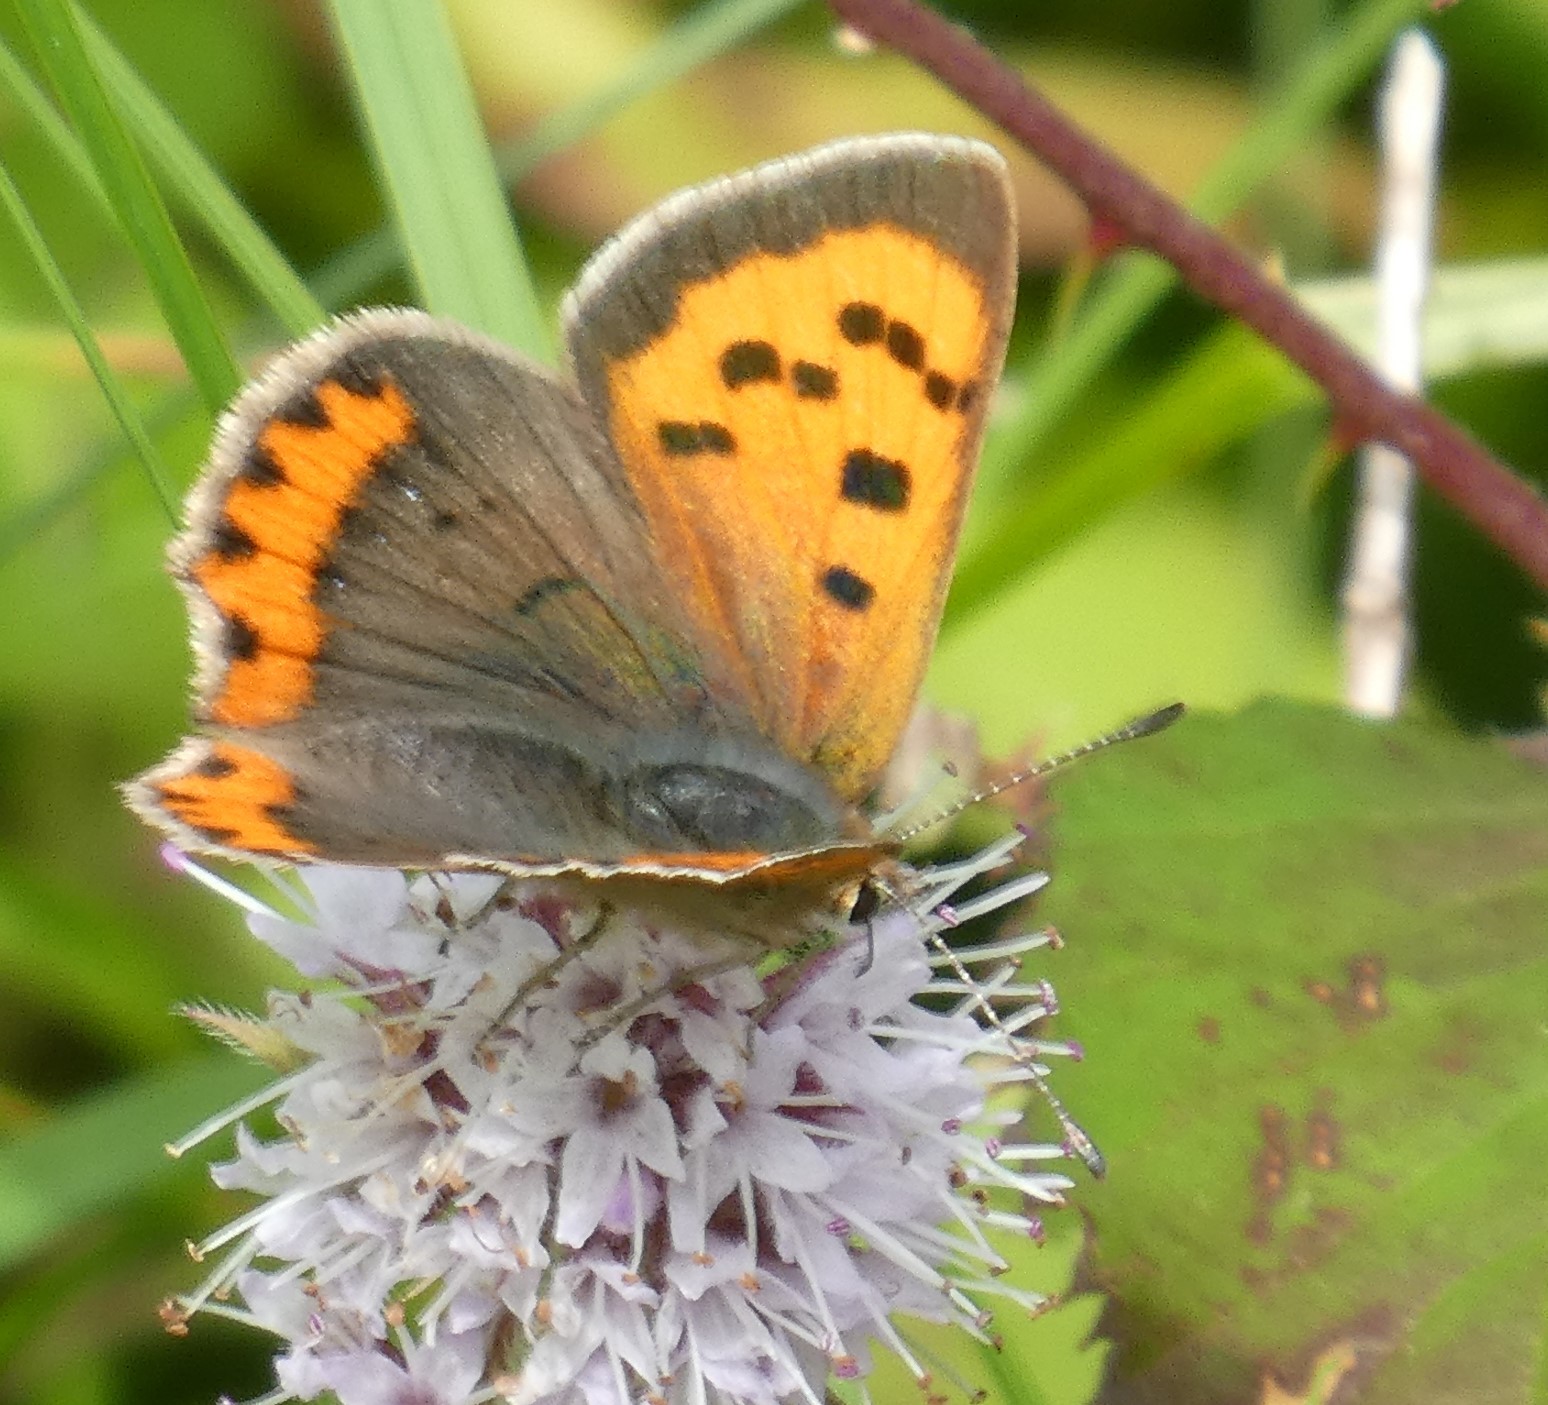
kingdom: Animalia
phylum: Arthropoda
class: Insecta
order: Lepidoptera
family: Lycaenidae
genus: Lycaena
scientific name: Lycaena phlaeas
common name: Small copper
